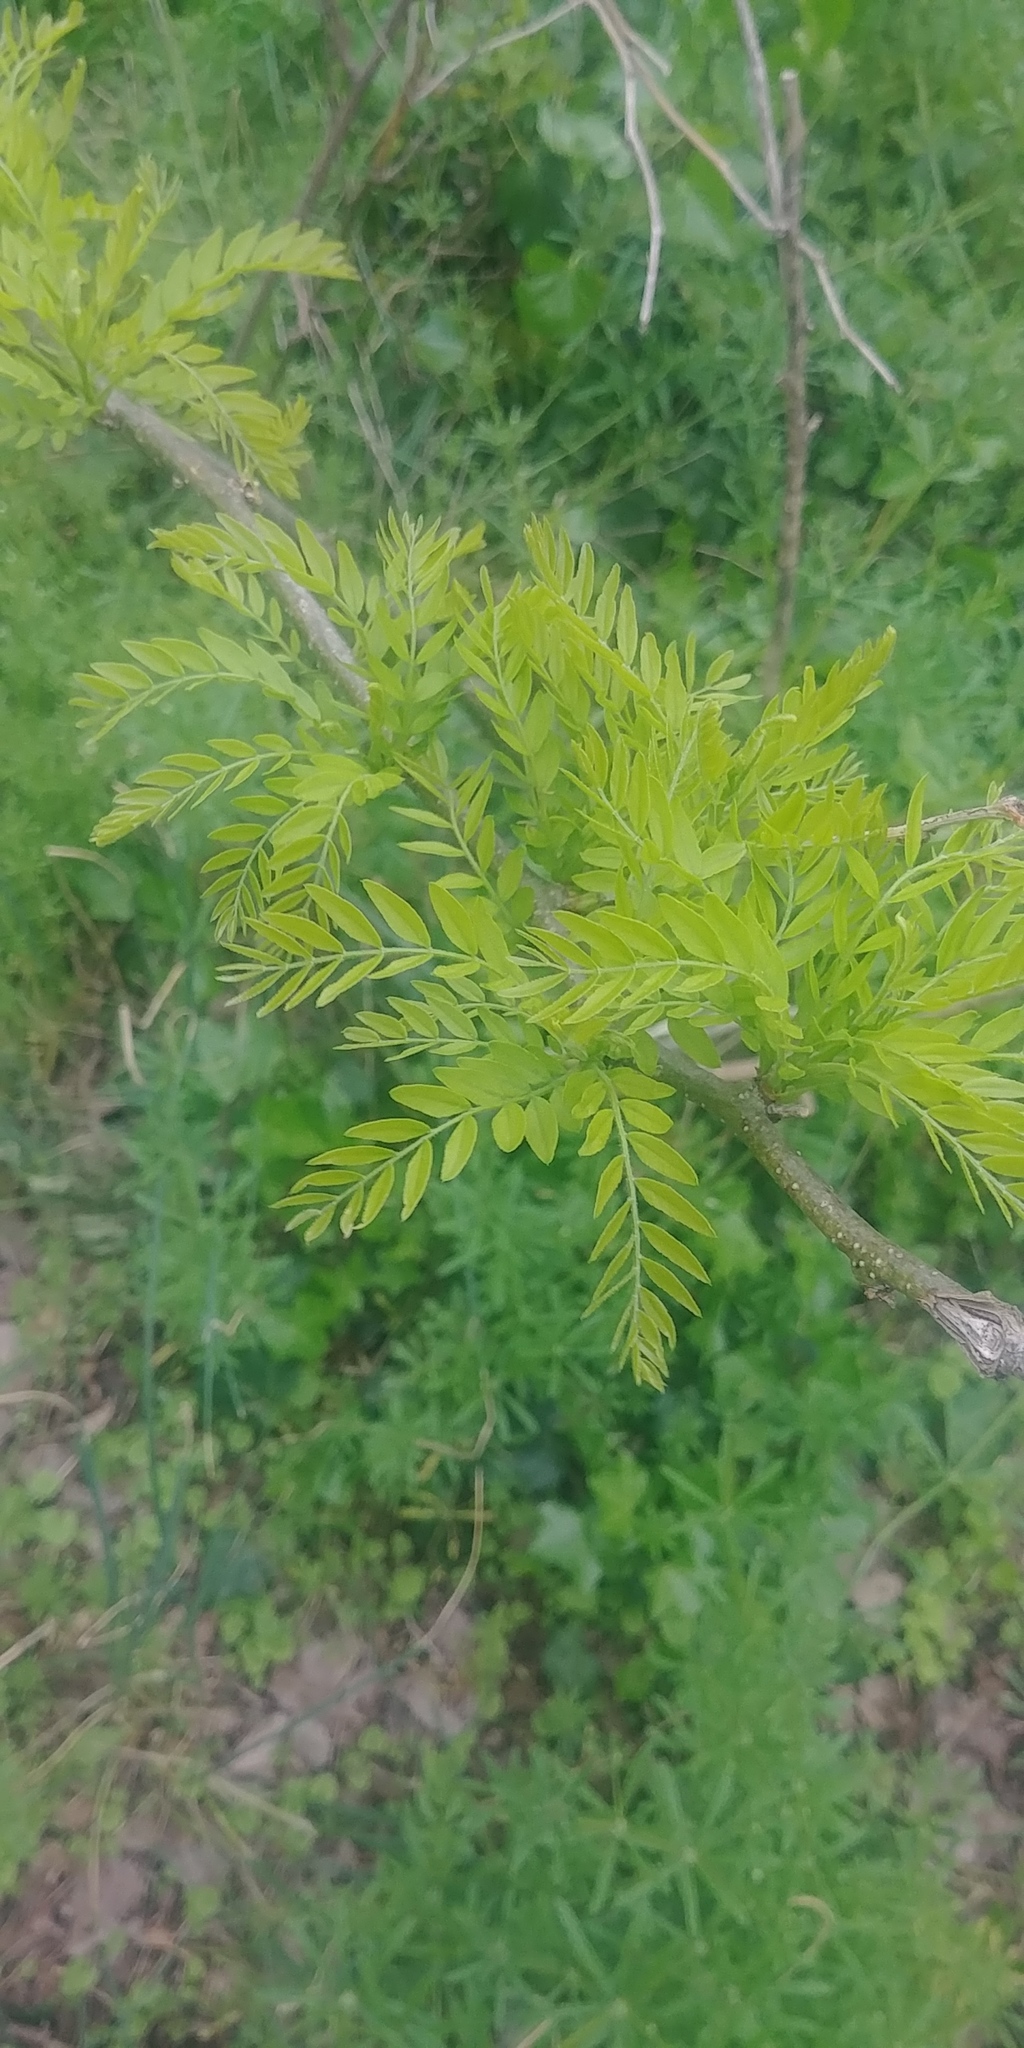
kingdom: Plantae
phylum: Tracheophyta
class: Magnoliopsida
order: Fabales
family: Fabaceae
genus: Gleditsia
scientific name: Gleditsia triacanthos
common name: Common honeylocust
